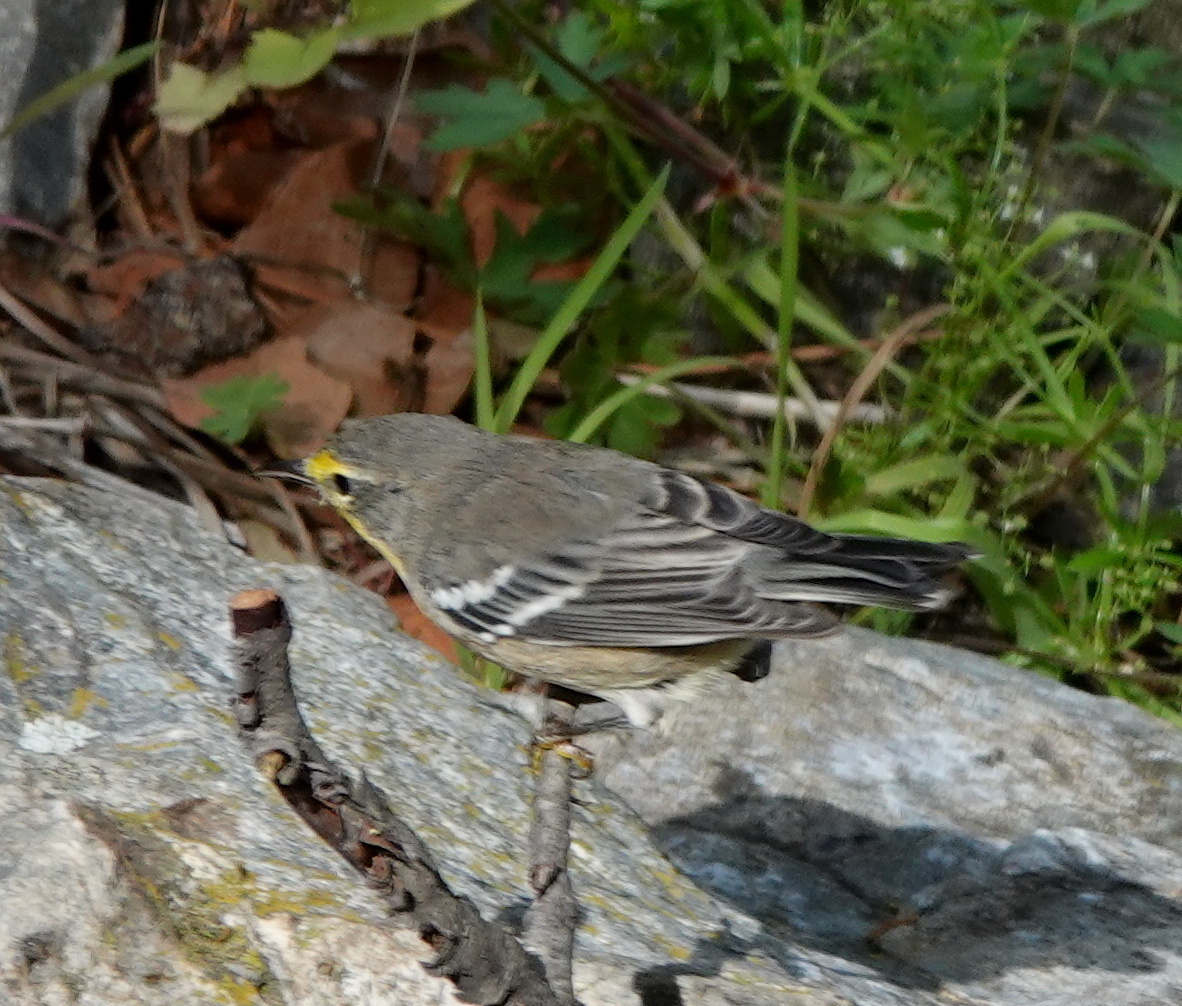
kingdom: Animalia
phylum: Chordata
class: Aves
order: Passeriformes
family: Parulidae
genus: Setophaga
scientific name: Setophaga graciae
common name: Grace's warbler
